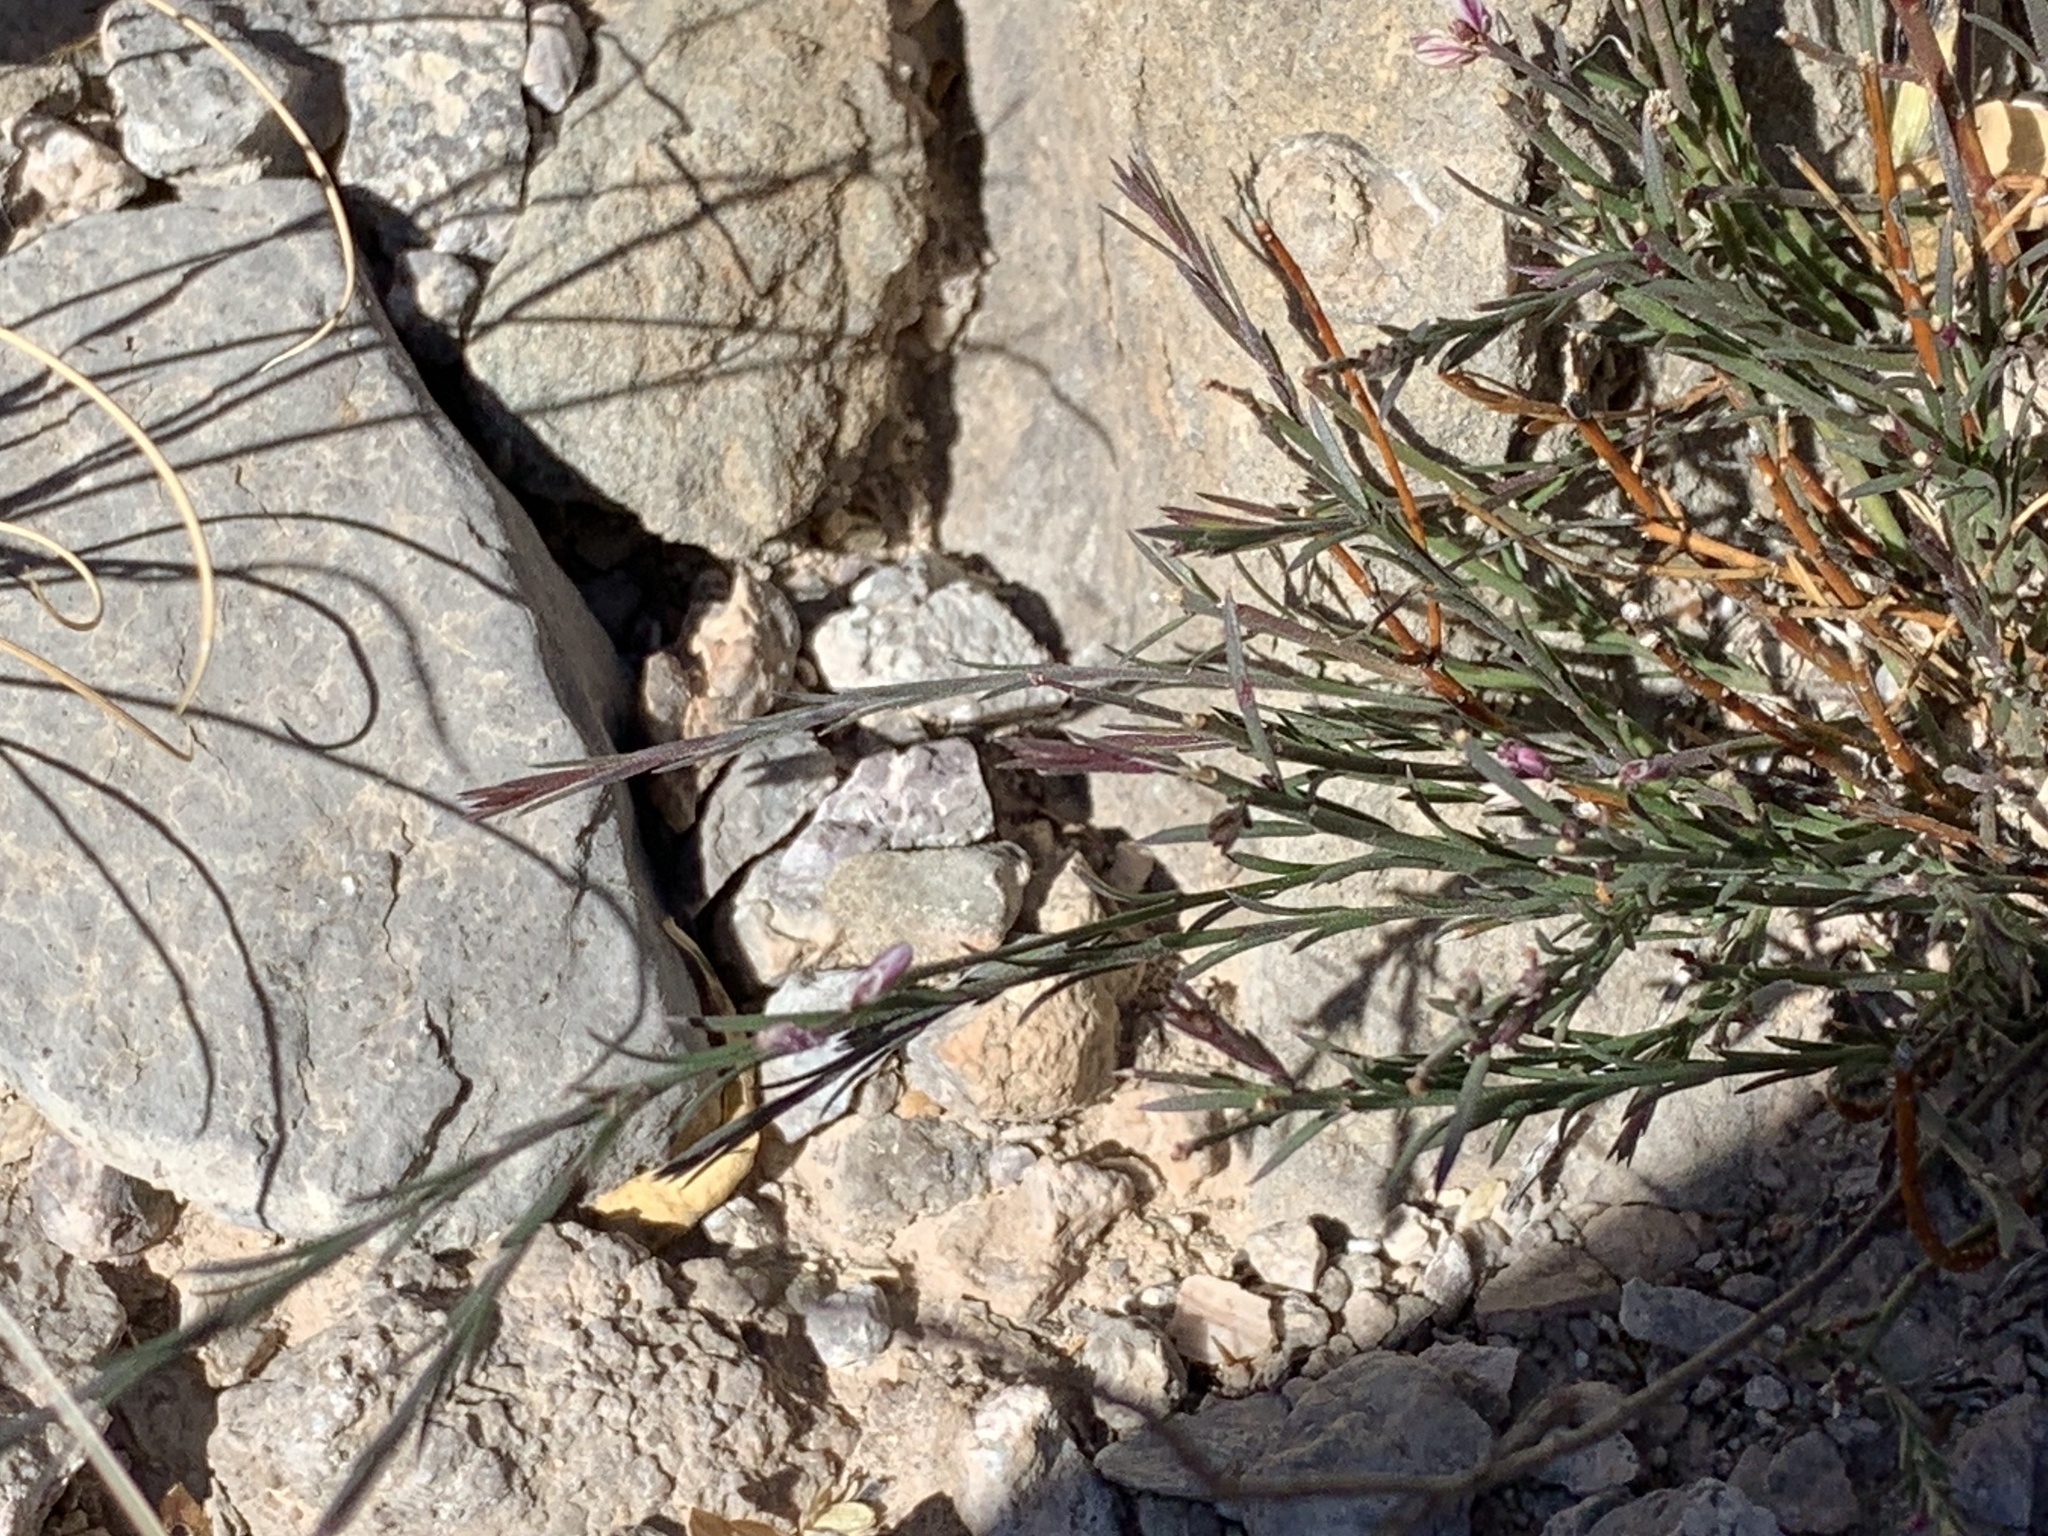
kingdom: Plantae
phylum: Tracheophyta
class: Magnoliopsida
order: Fabales
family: Polygalaceae
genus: Polygala
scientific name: Polygala scoparioides
